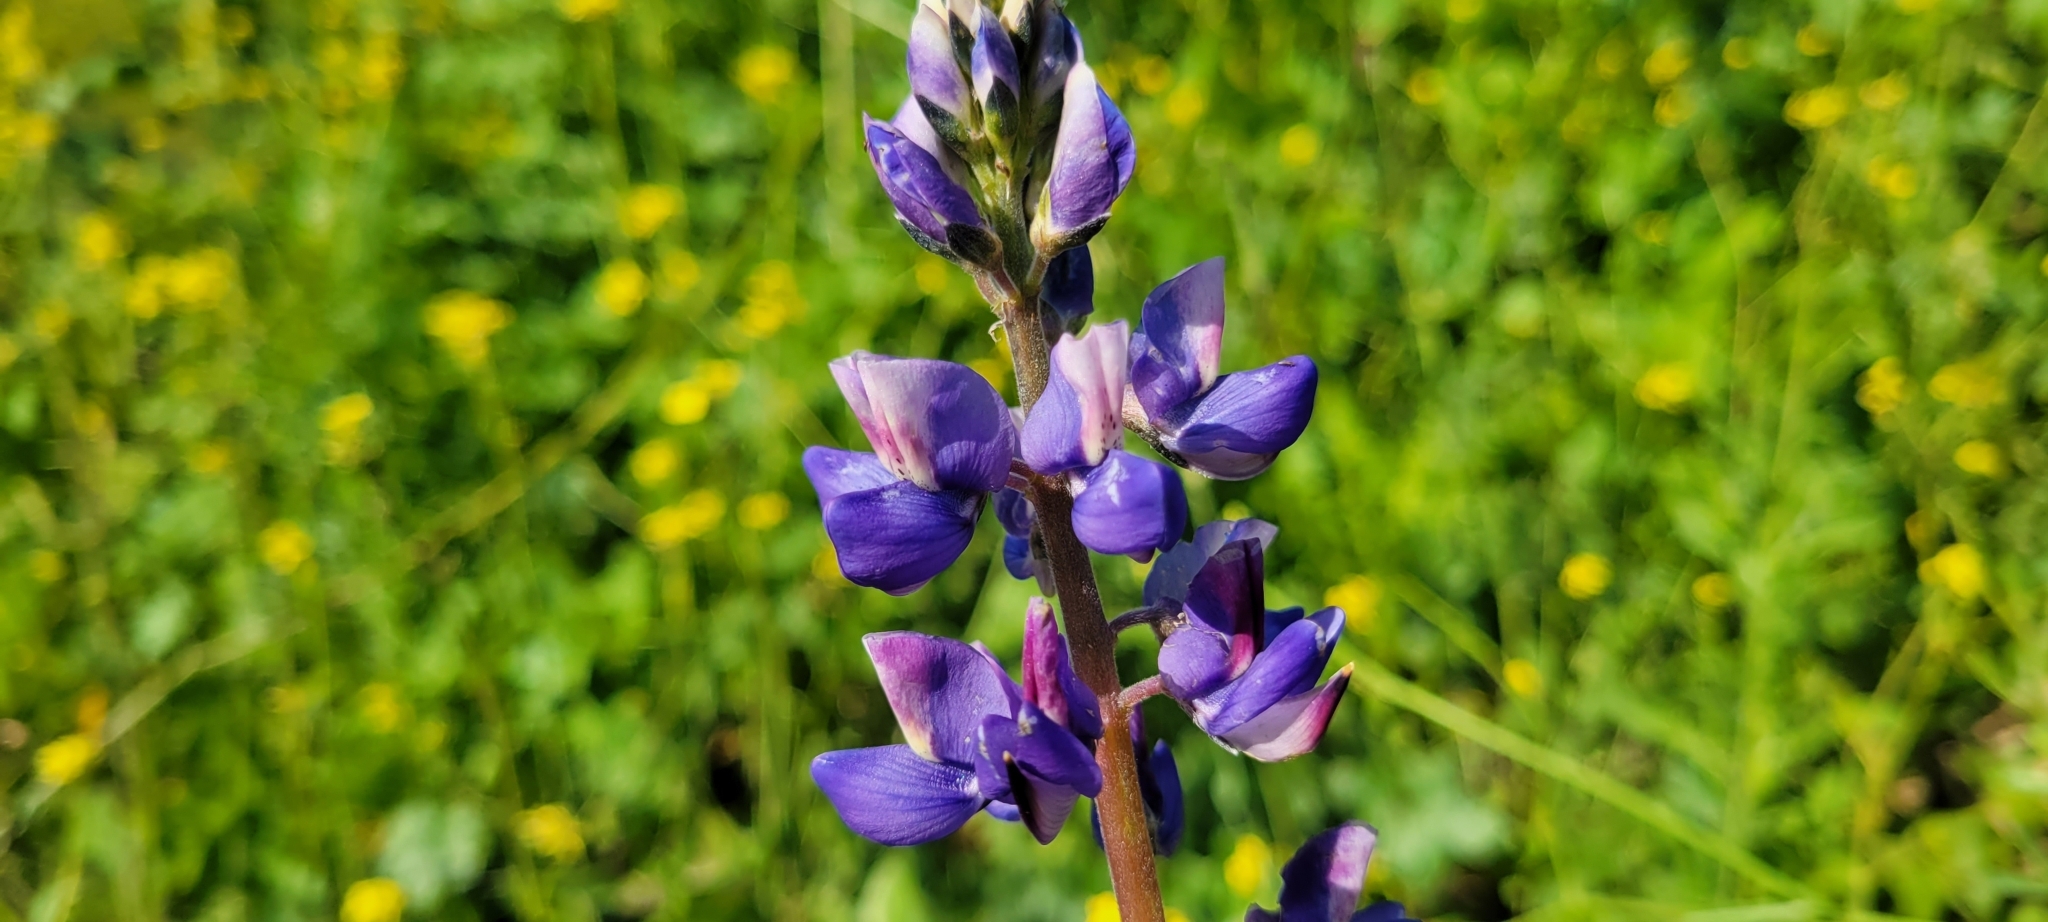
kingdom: Plantae
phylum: Tracheophyta
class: Magnoliopsida
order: Fabales
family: Fabaceae
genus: Lupinus
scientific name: Lupinus succulentus
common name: Arroyo lupine
